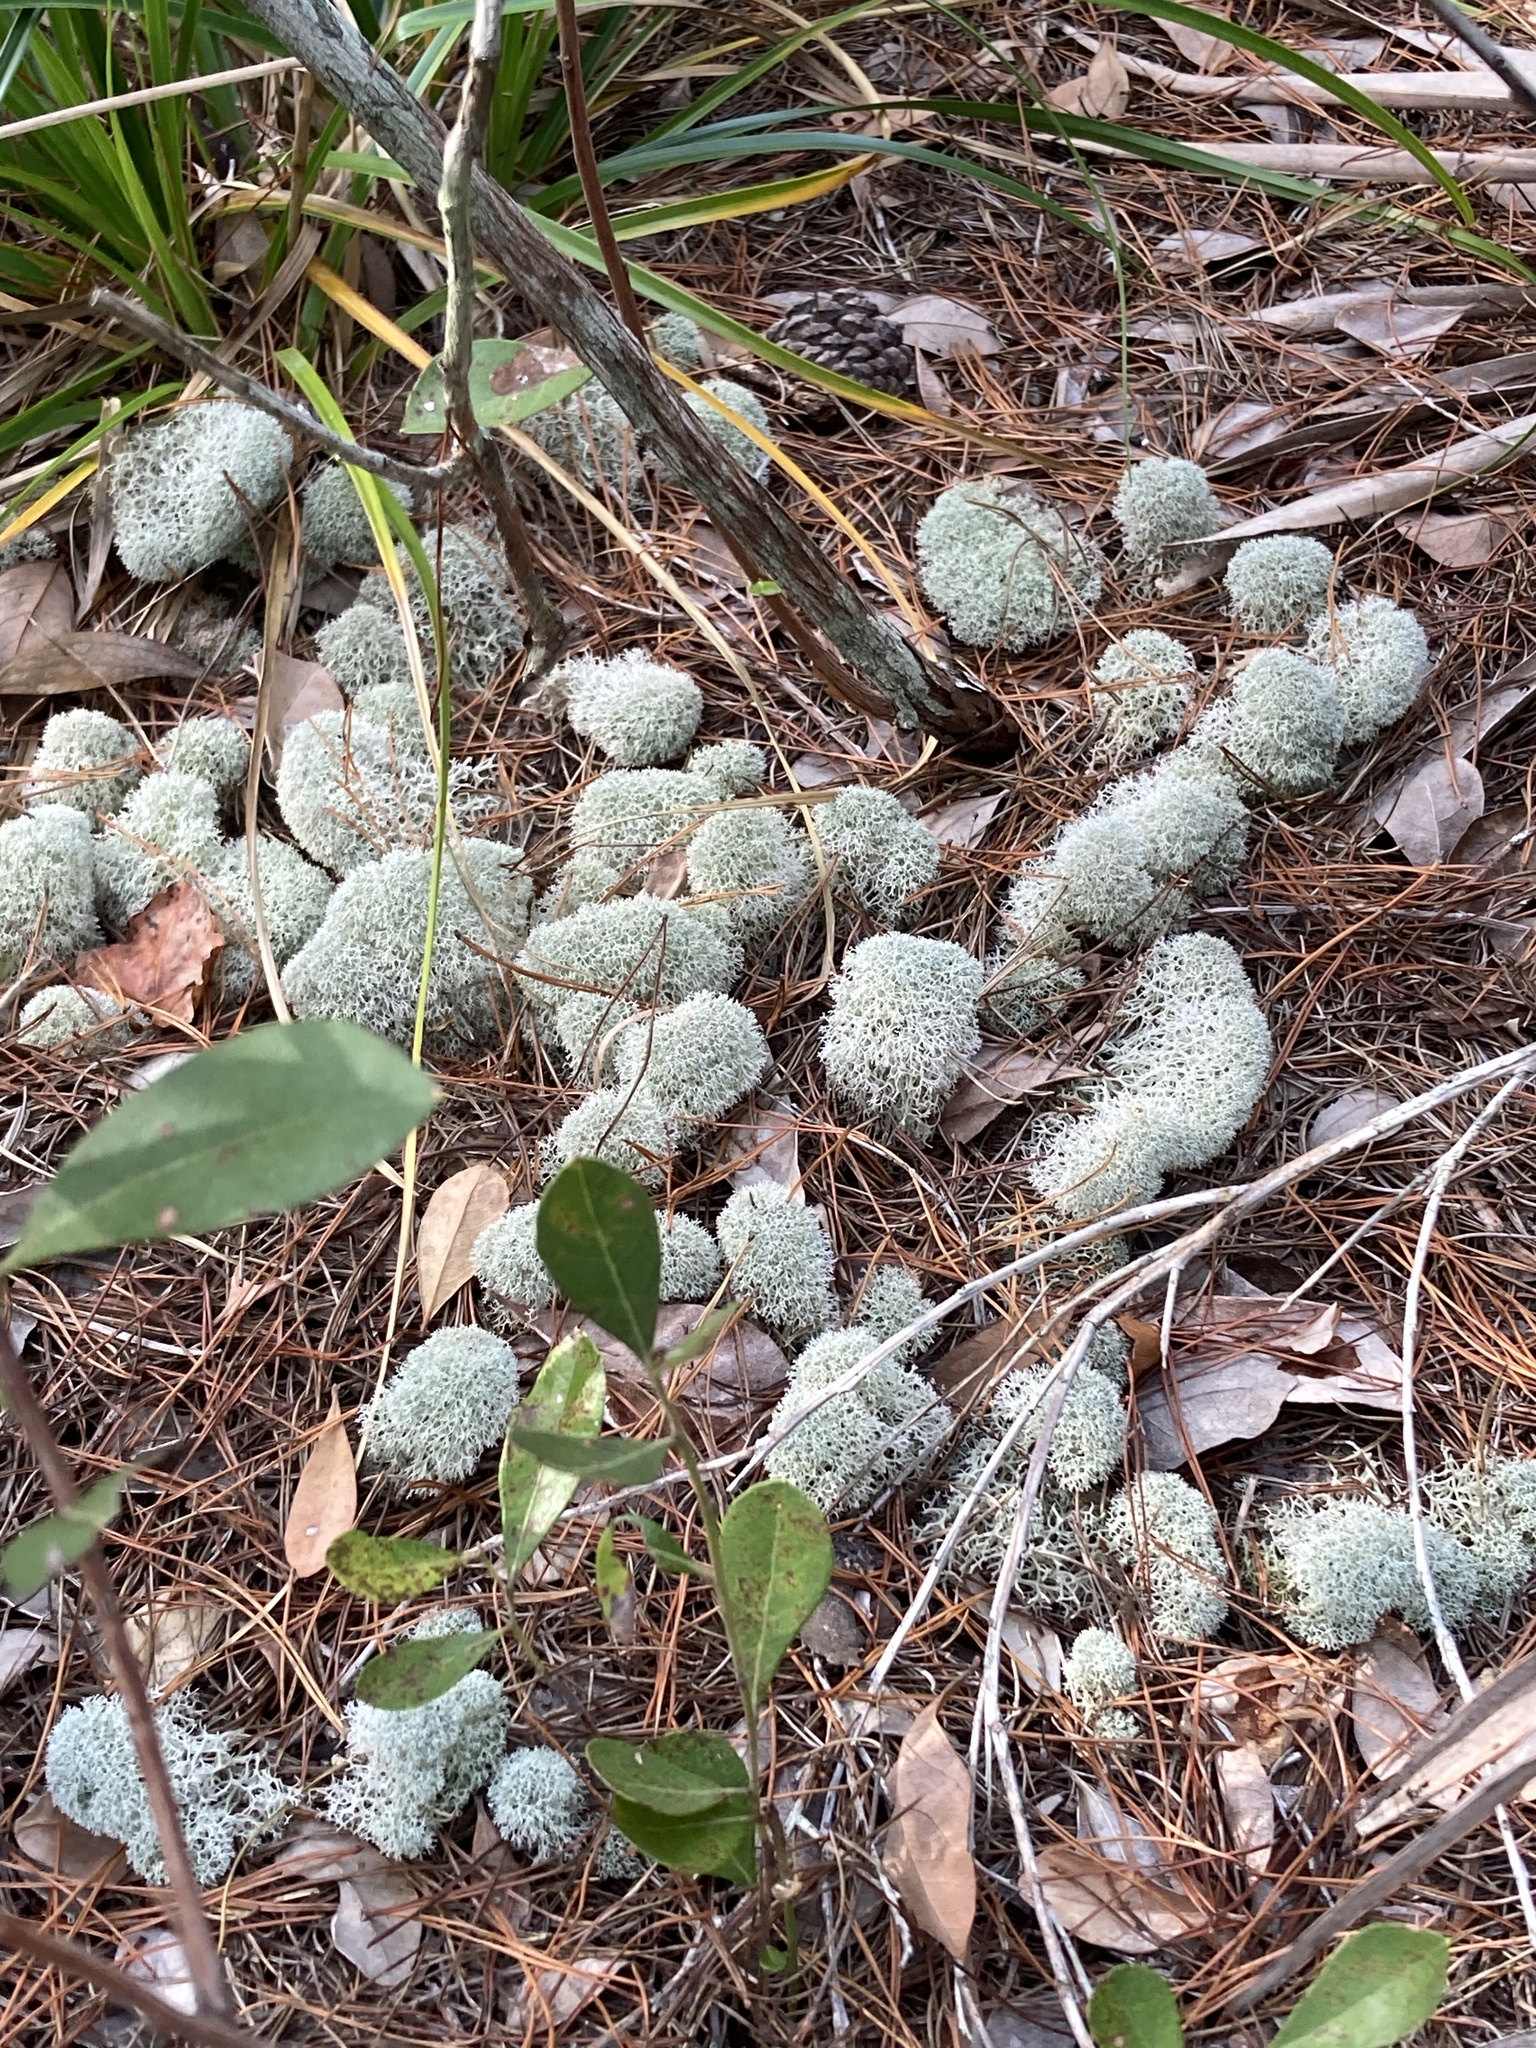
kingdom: Fungi
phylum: Ascomycota
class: Lecanoromycetes
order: Lecanorales
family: Cladoniaceae
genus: Cladonia
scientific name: Cladonia evansii
